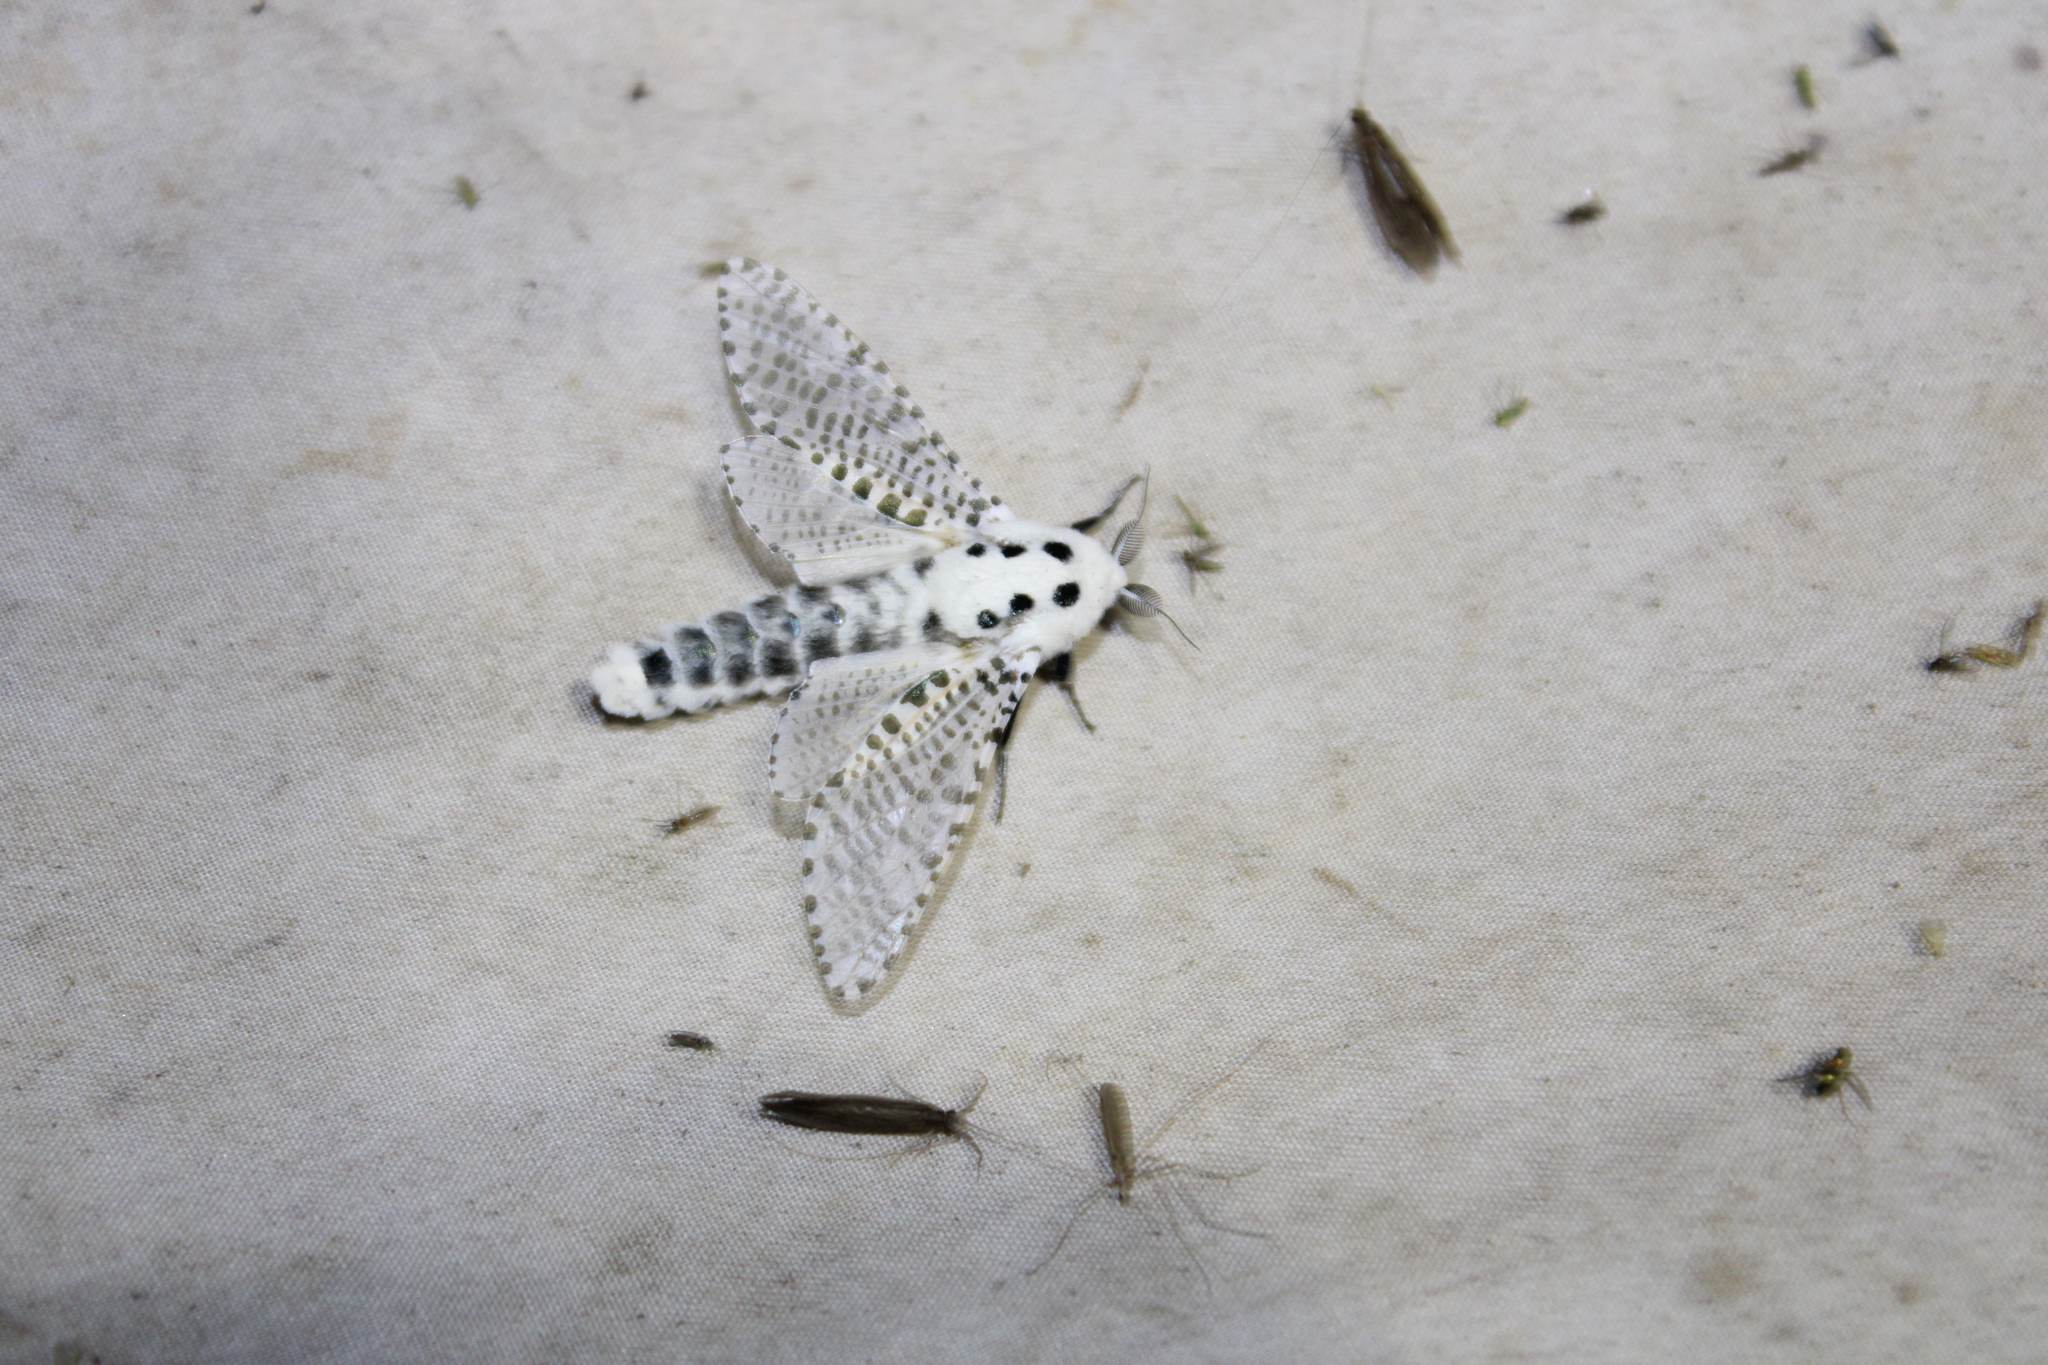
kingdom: Animalia
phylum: Arthropoda
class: Insecta
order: Lepidoptera
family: Cossidae
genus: Zeuzera
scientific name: Zeuzera pyrina
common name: Leopard moth
